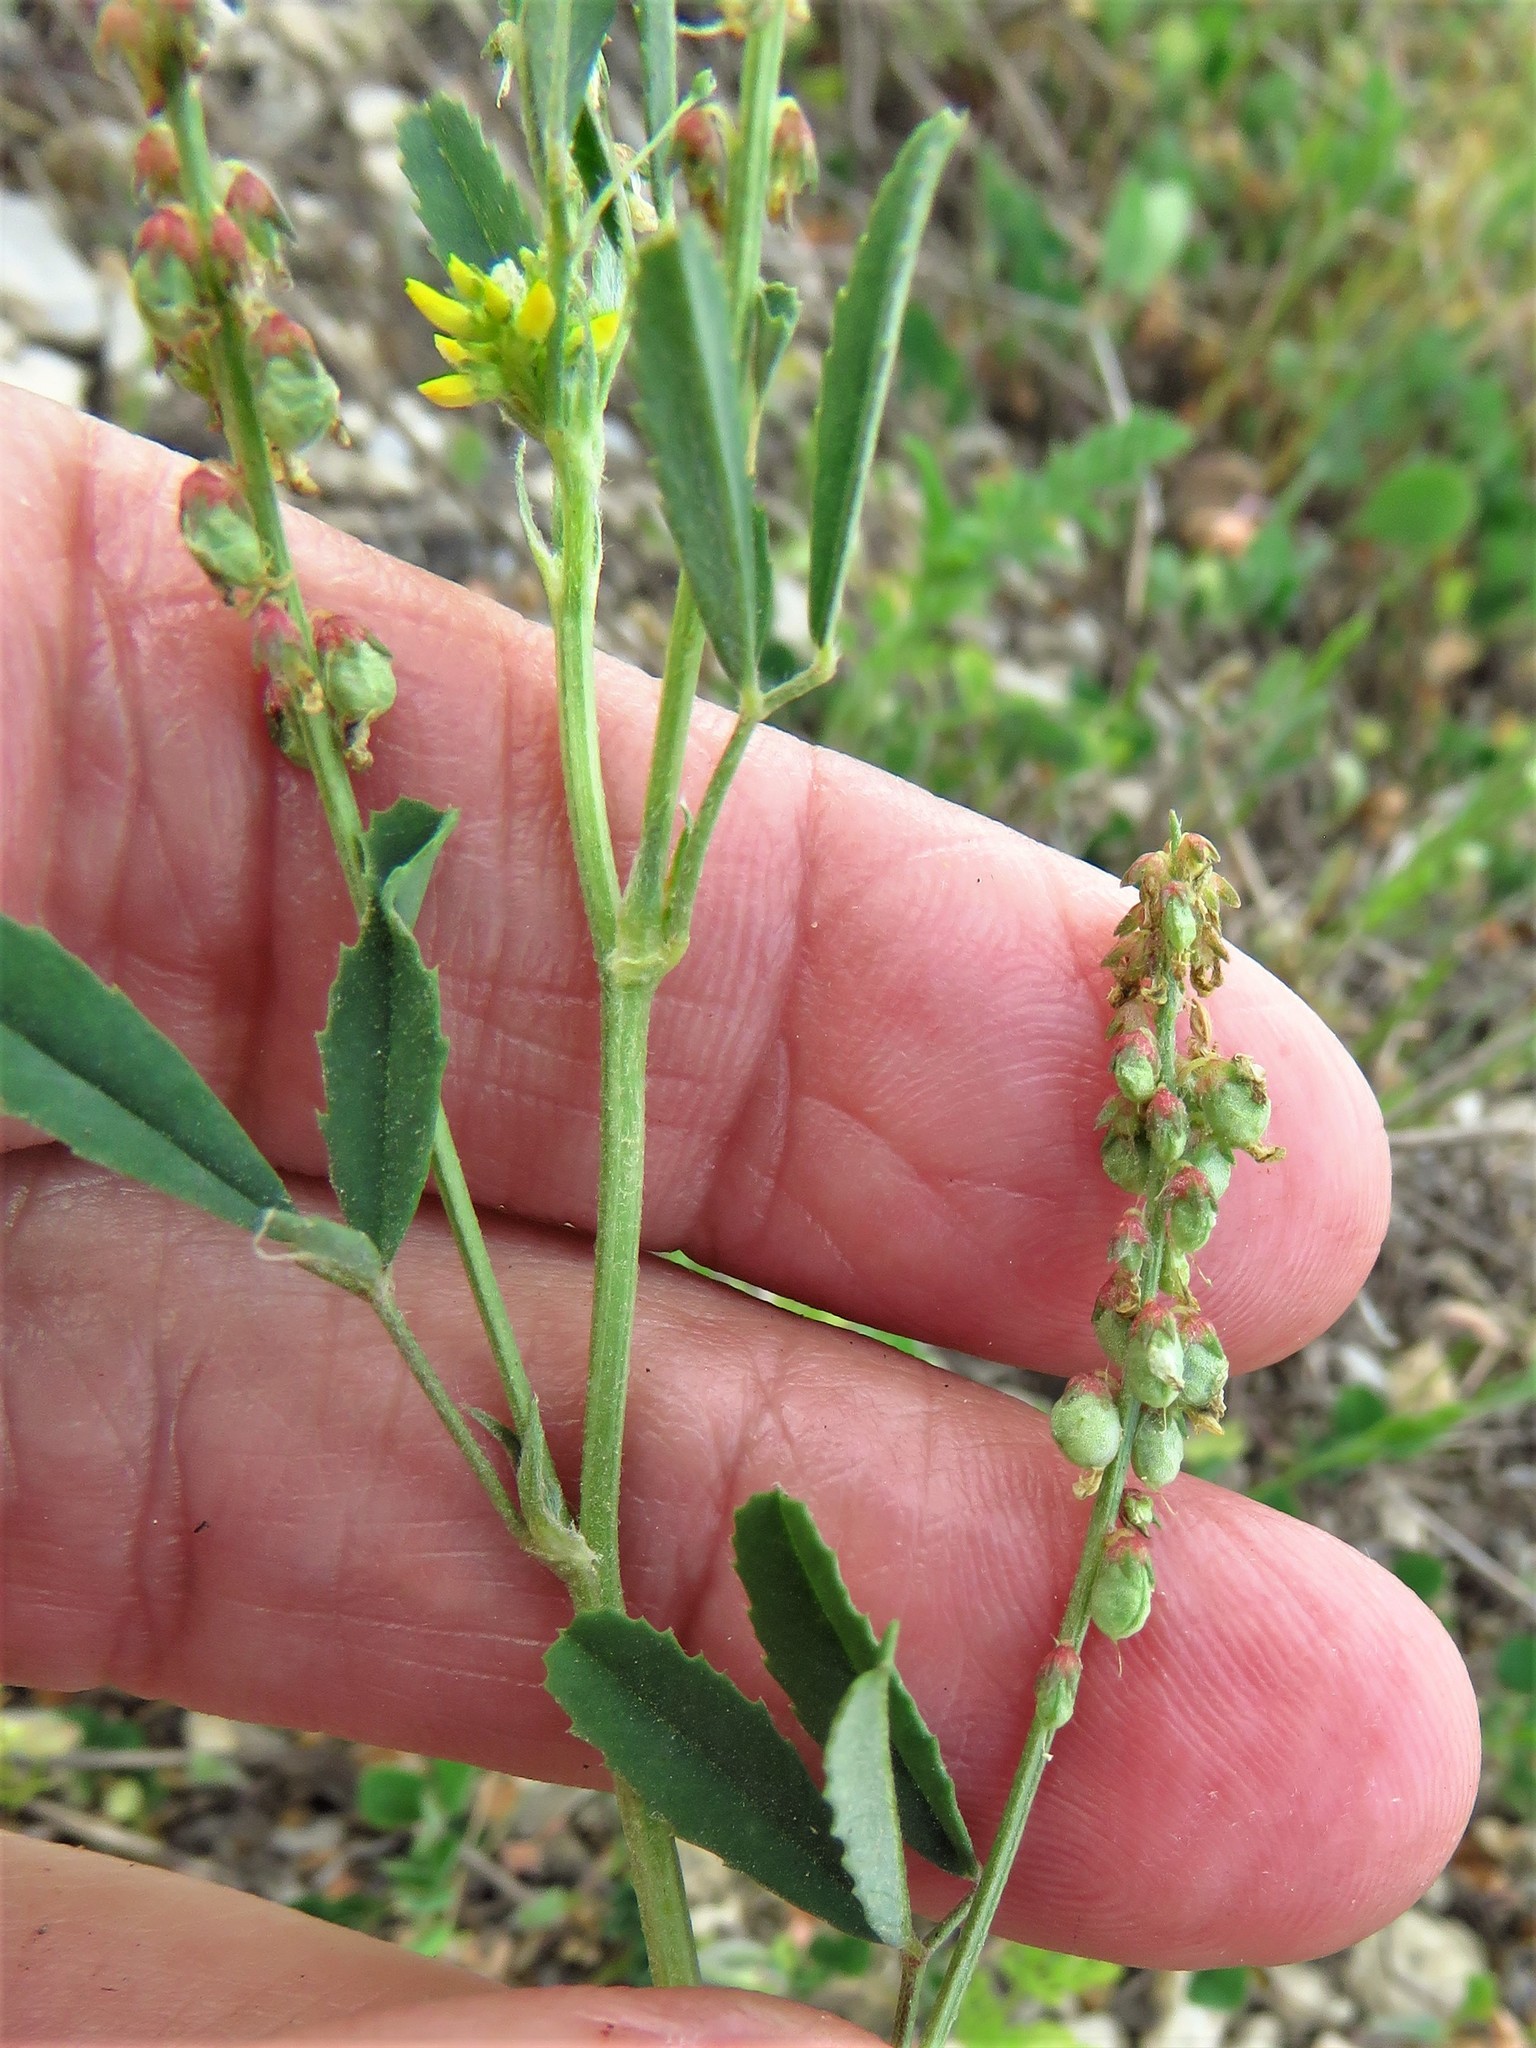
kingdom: Plantae
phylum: Tracheophyta
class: Magnoliopsida
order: Fabales
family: Fabaceae
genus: Melilotus
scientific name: Melilotus indicus
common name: Small melilot
